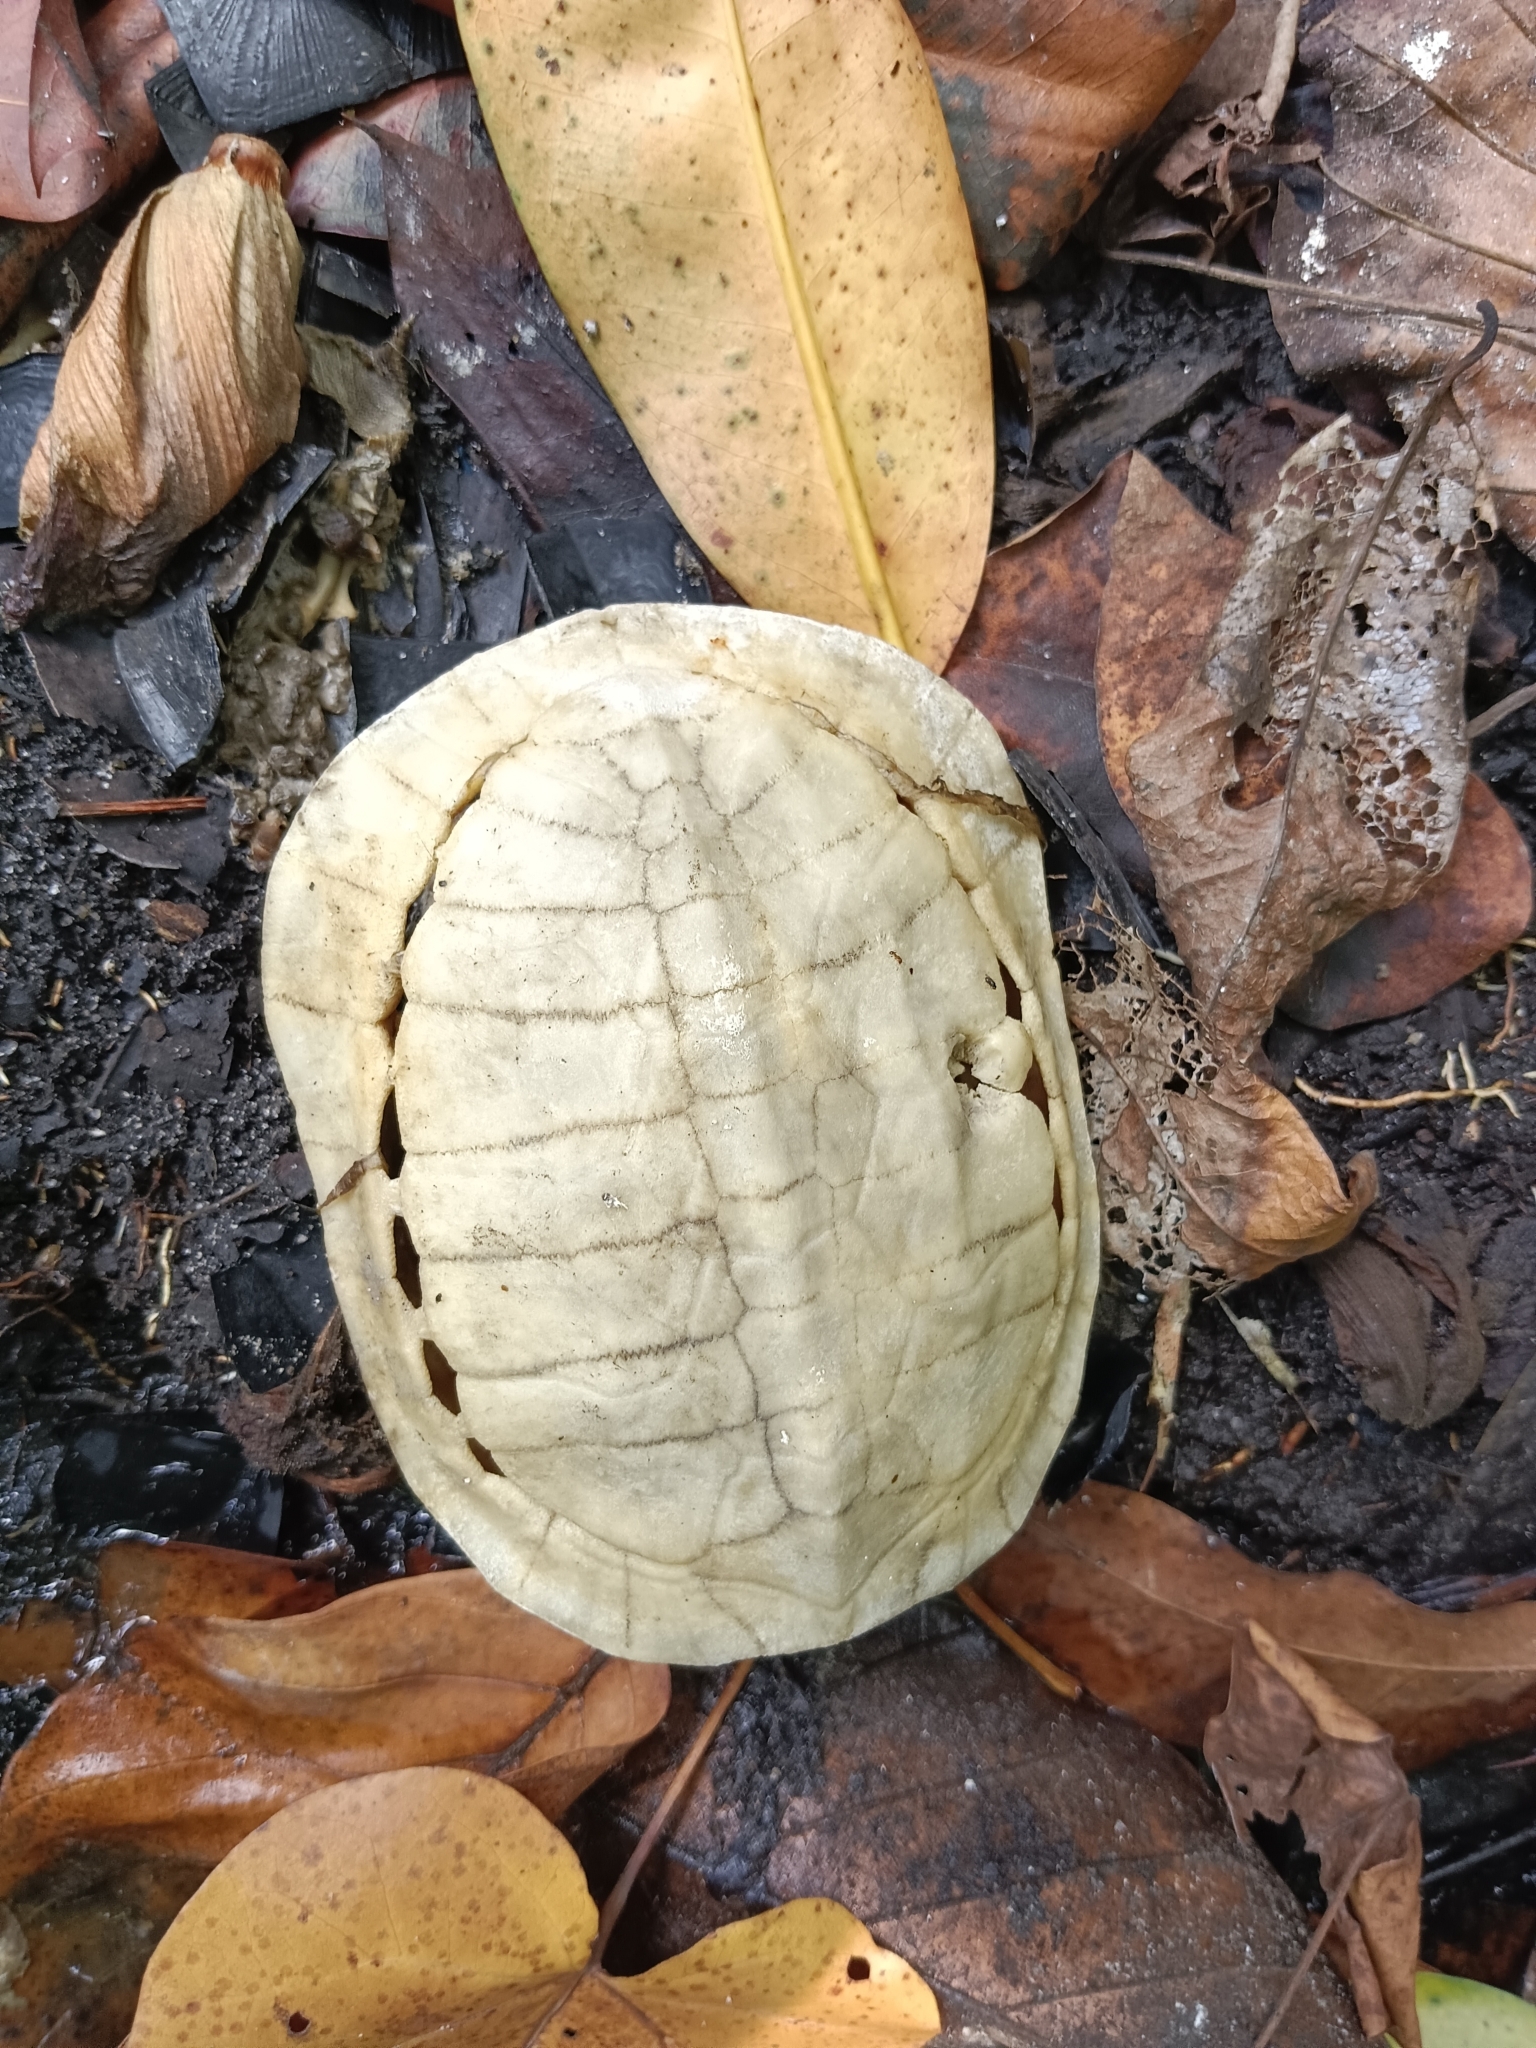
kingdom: Animalia
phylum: Chordata
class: Testudines
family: Geoemydidae
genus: Melanochelys
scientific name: Melanochelys trijuga
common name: Indian black turtle
